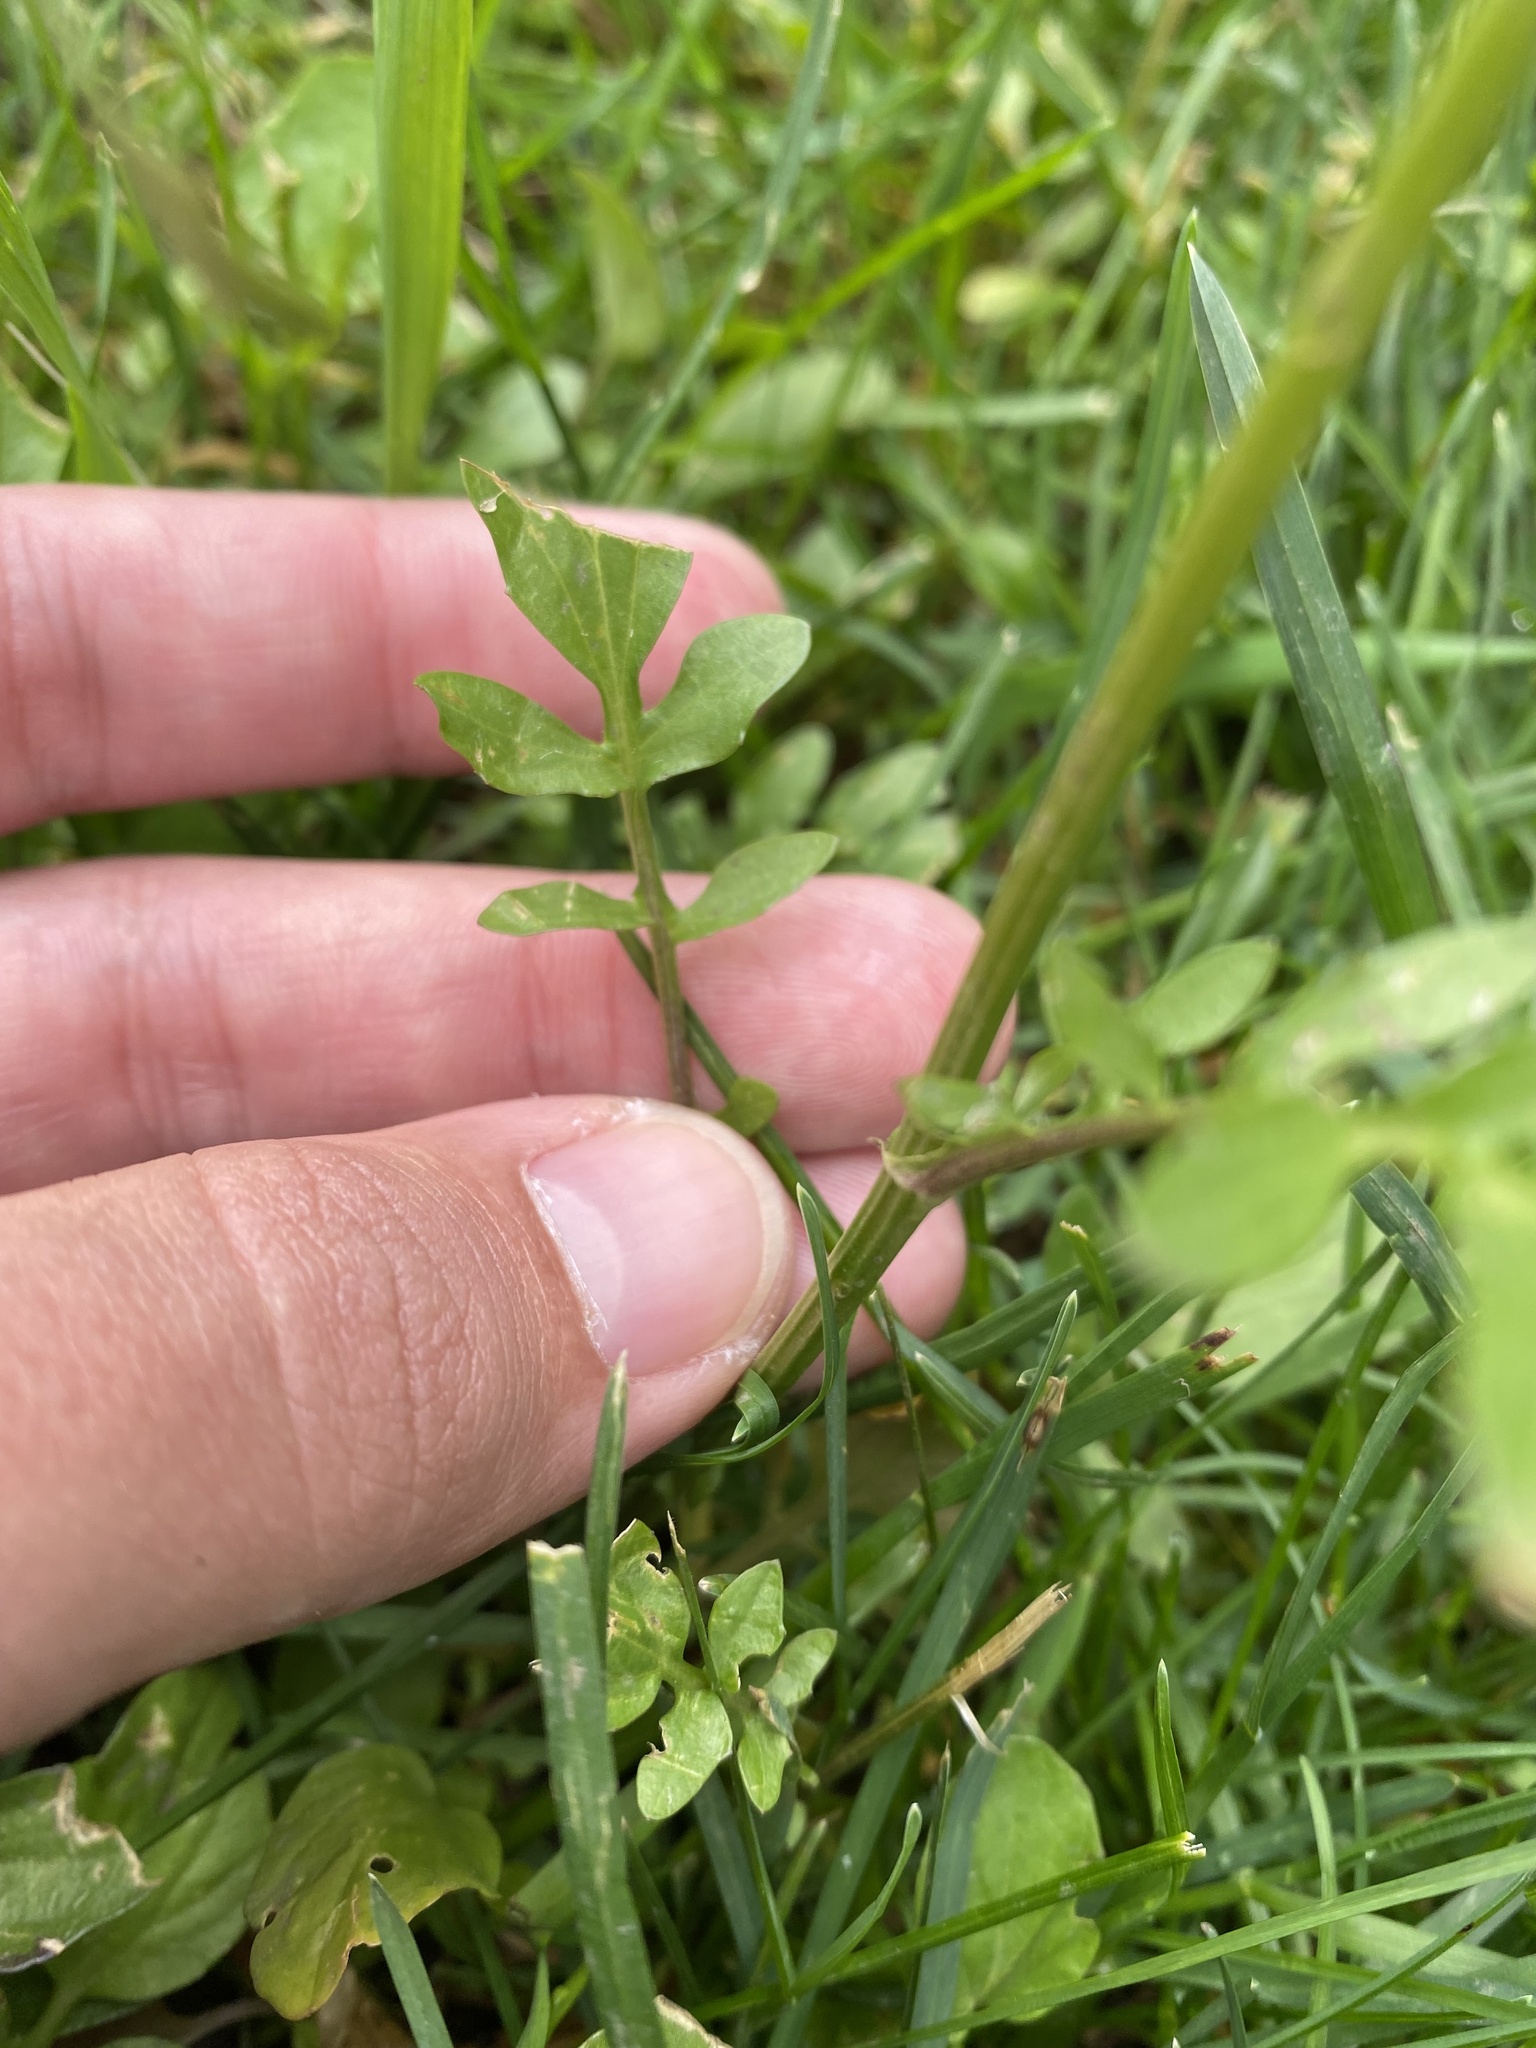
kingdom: Plantae
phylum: Tracheophyta
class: Magnoliopsida
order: Brassicales
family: Brassicaceae
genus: Barbarea
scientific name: Barbarea vulgaris
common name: Cressy-greens
